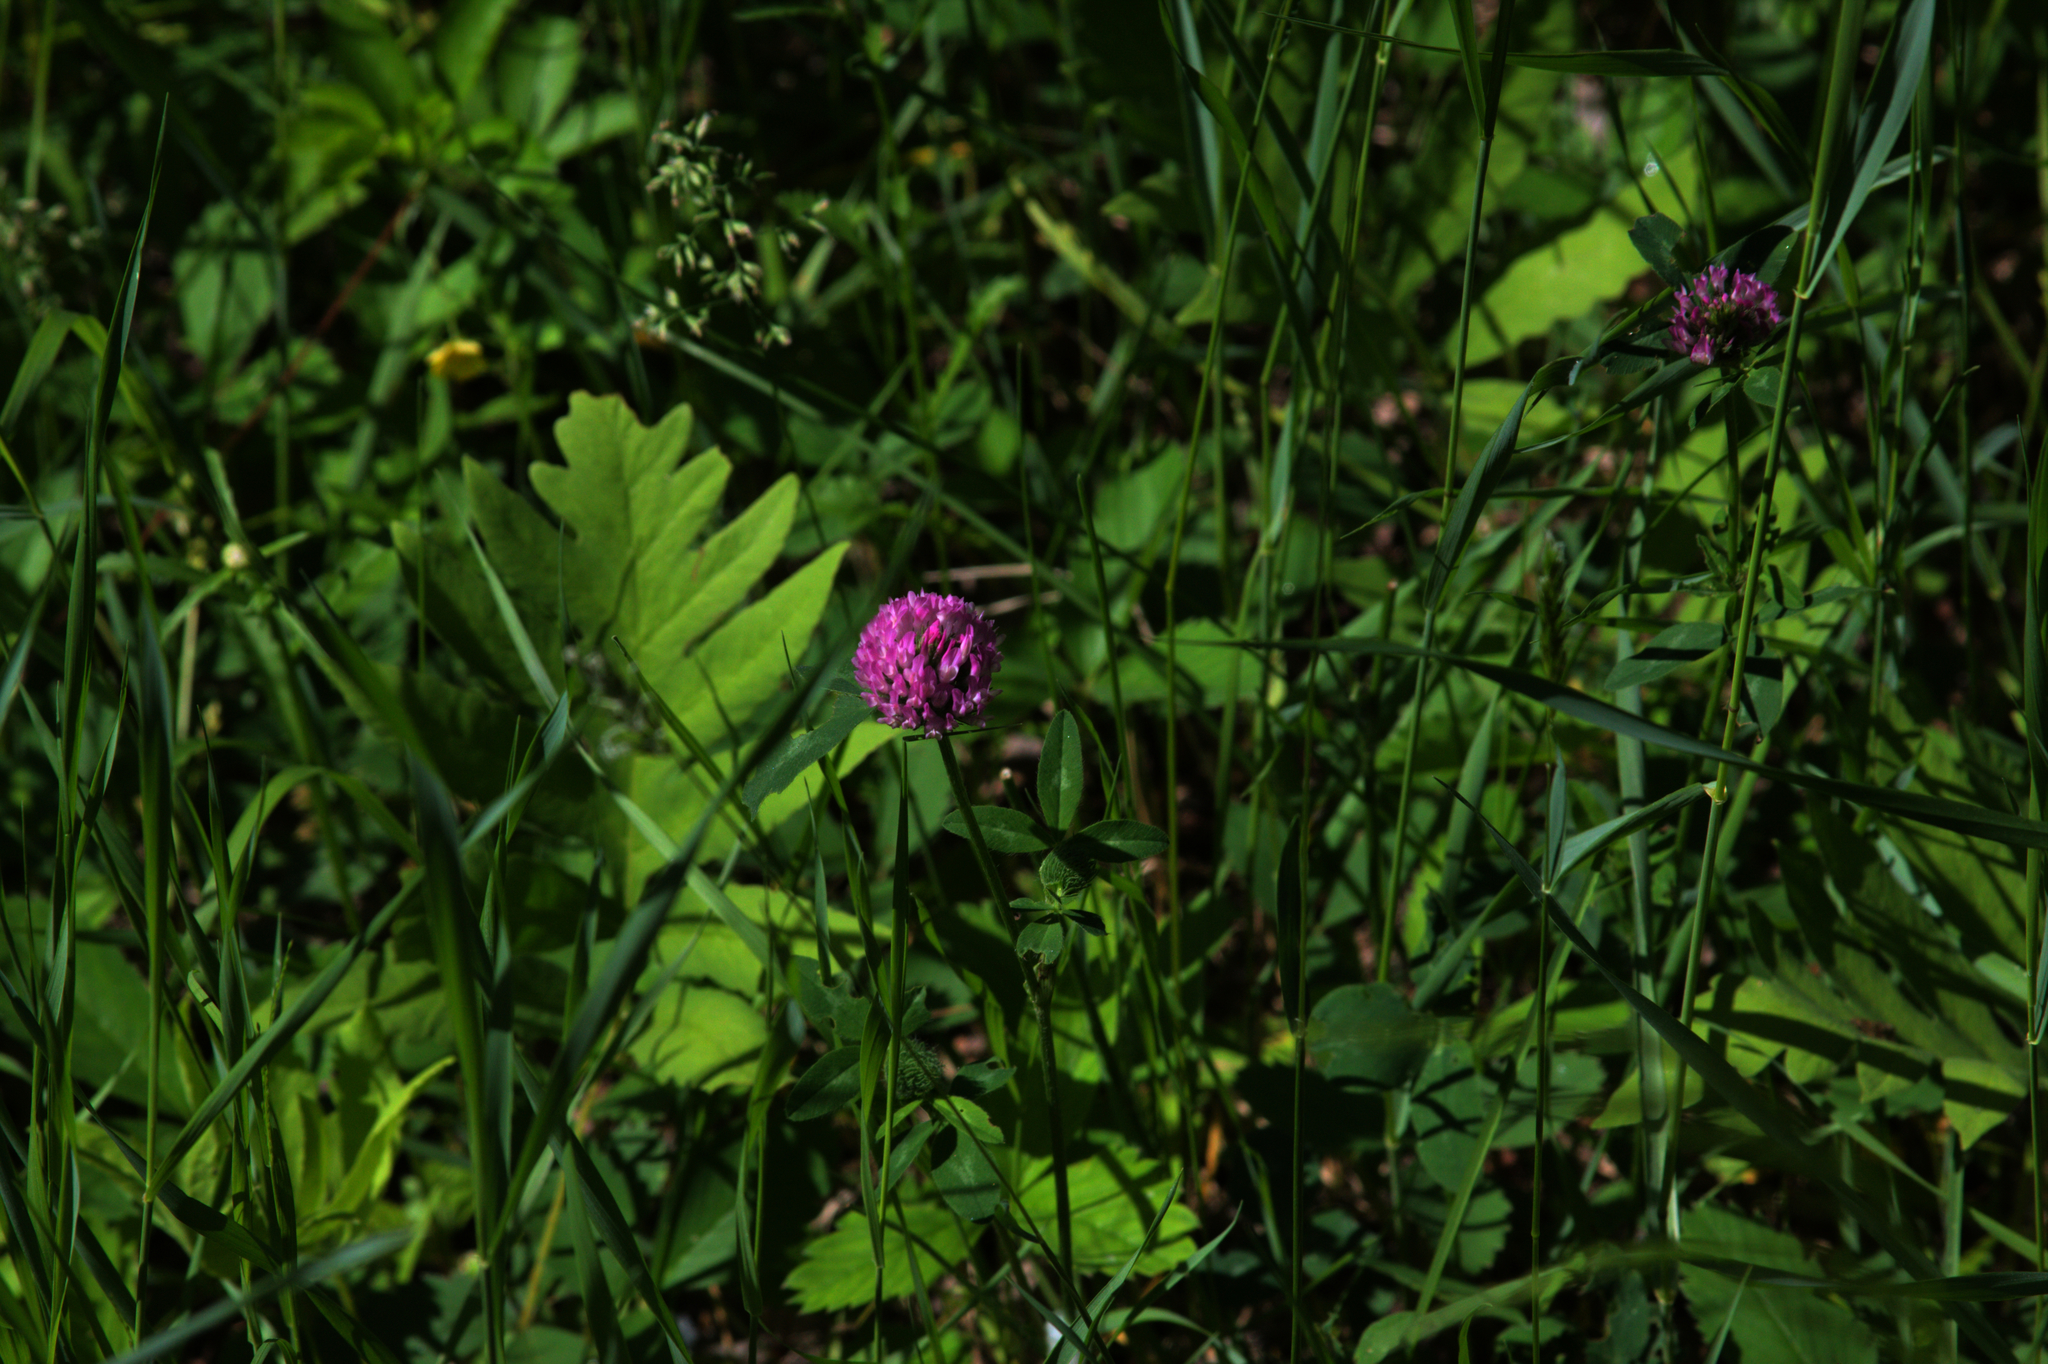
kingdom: Plantae
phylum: Tracheophyta
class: Magnoliopsida
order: Fabales
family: Fabaceae
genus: Trifolium
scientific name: Trifolium pratense
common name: Red clover
